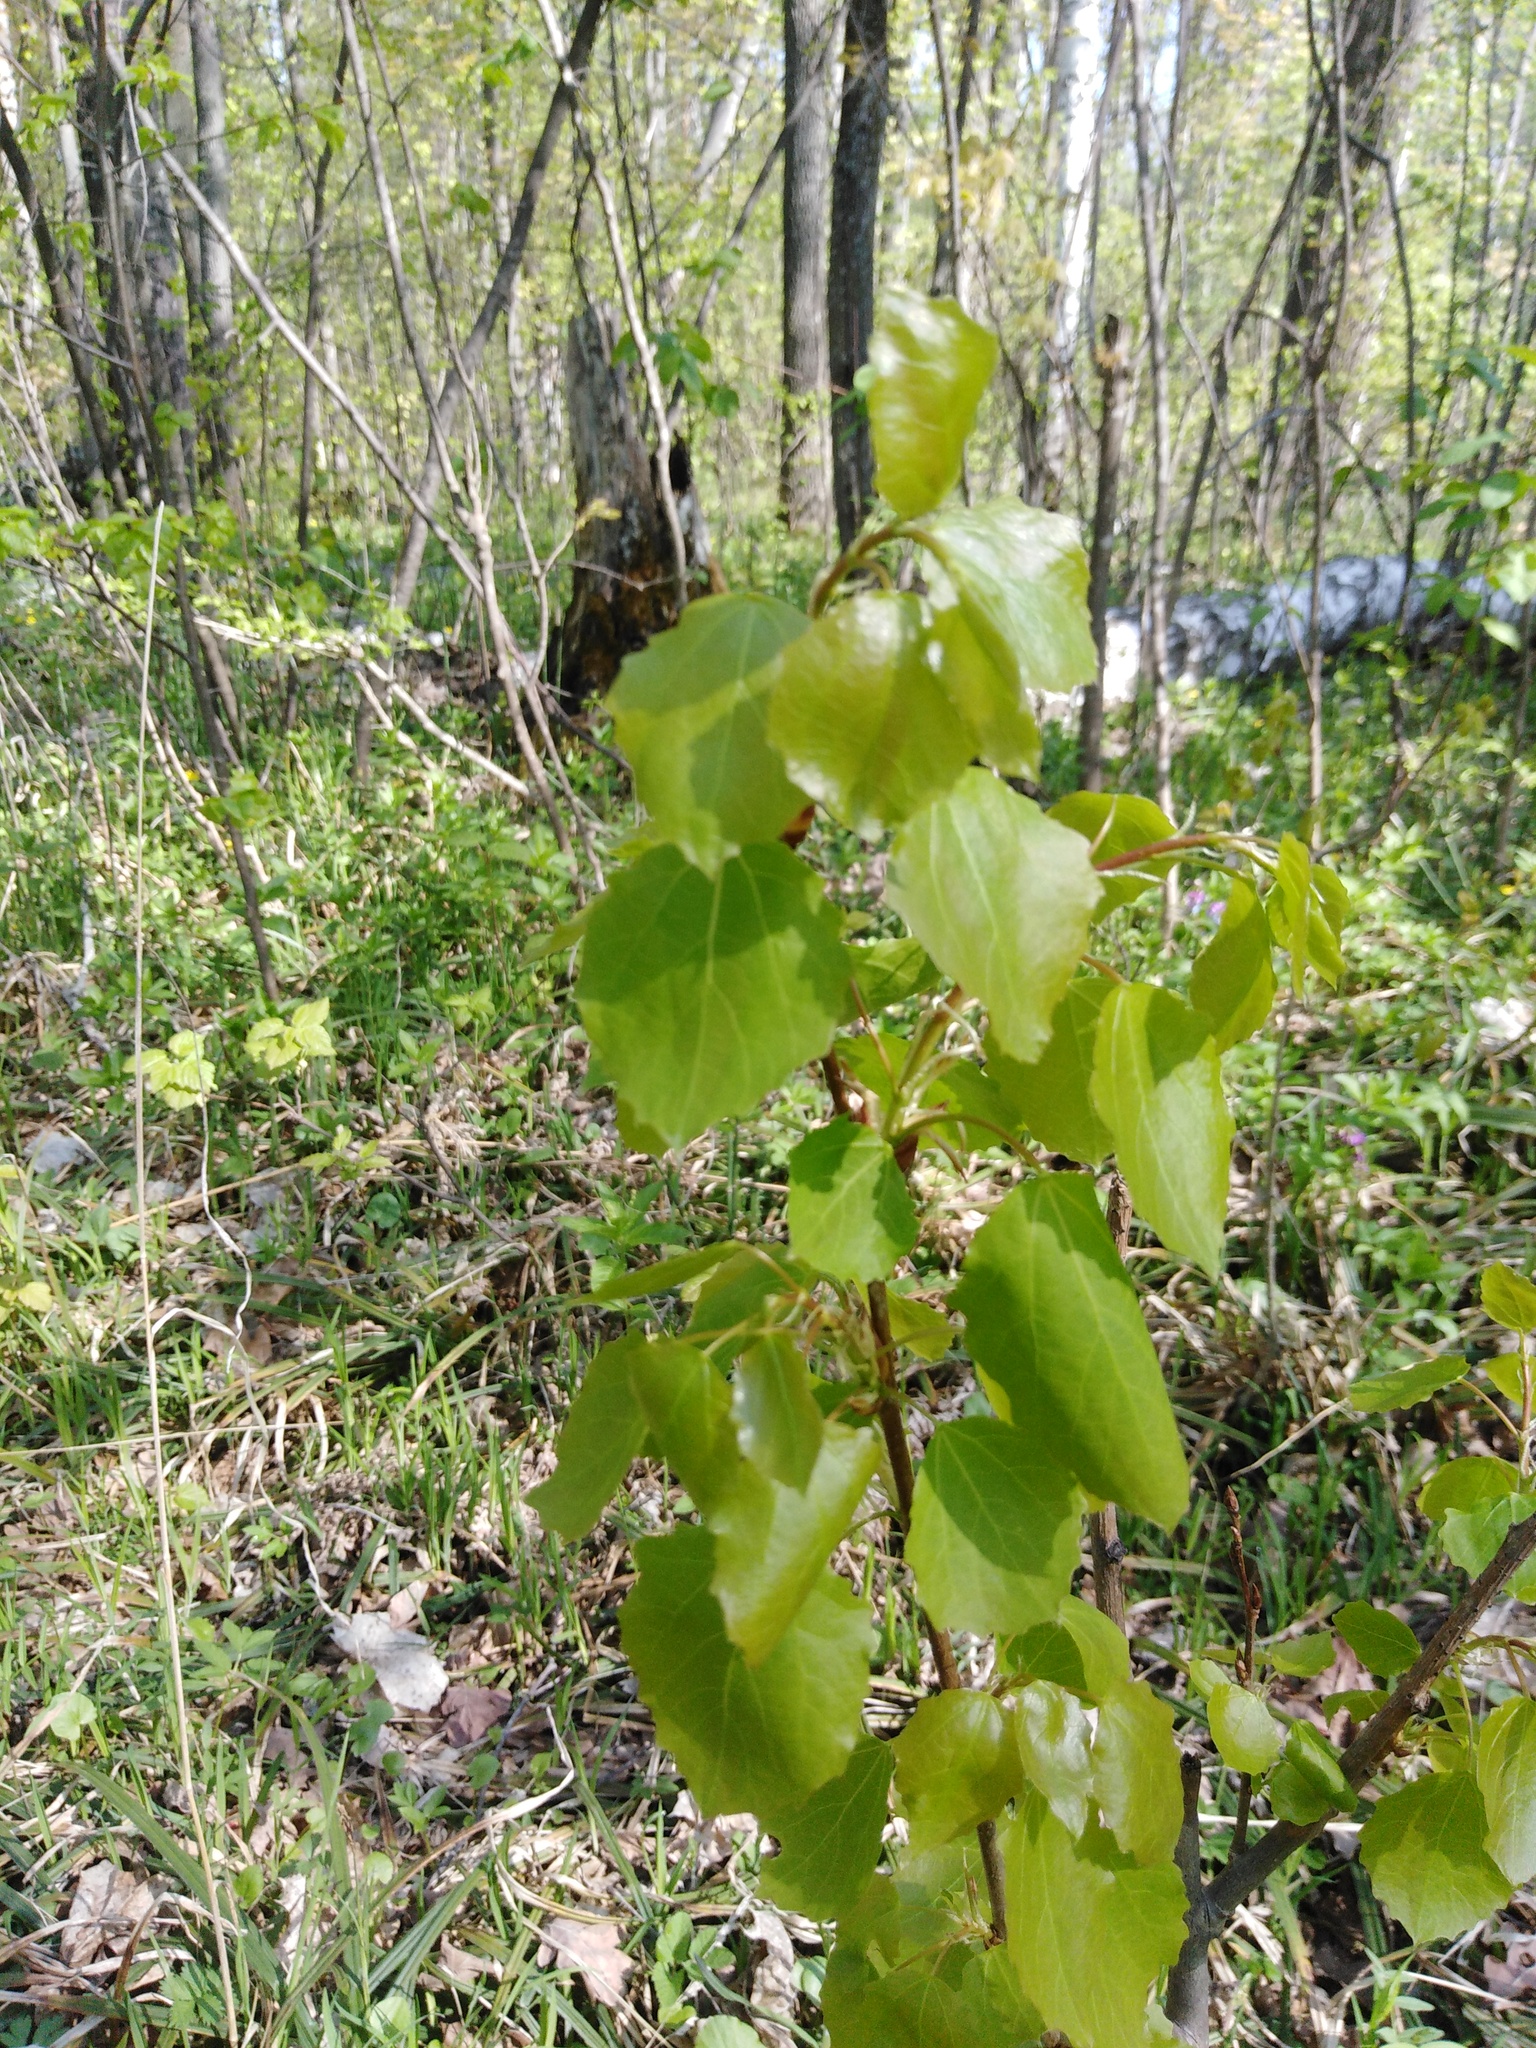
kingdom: Plantae
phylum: Tracheophyta
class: Magnoliopsida
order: Malpighiales
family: Salicaceae
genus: Populus
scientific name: Populus tremula
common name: European aspen
